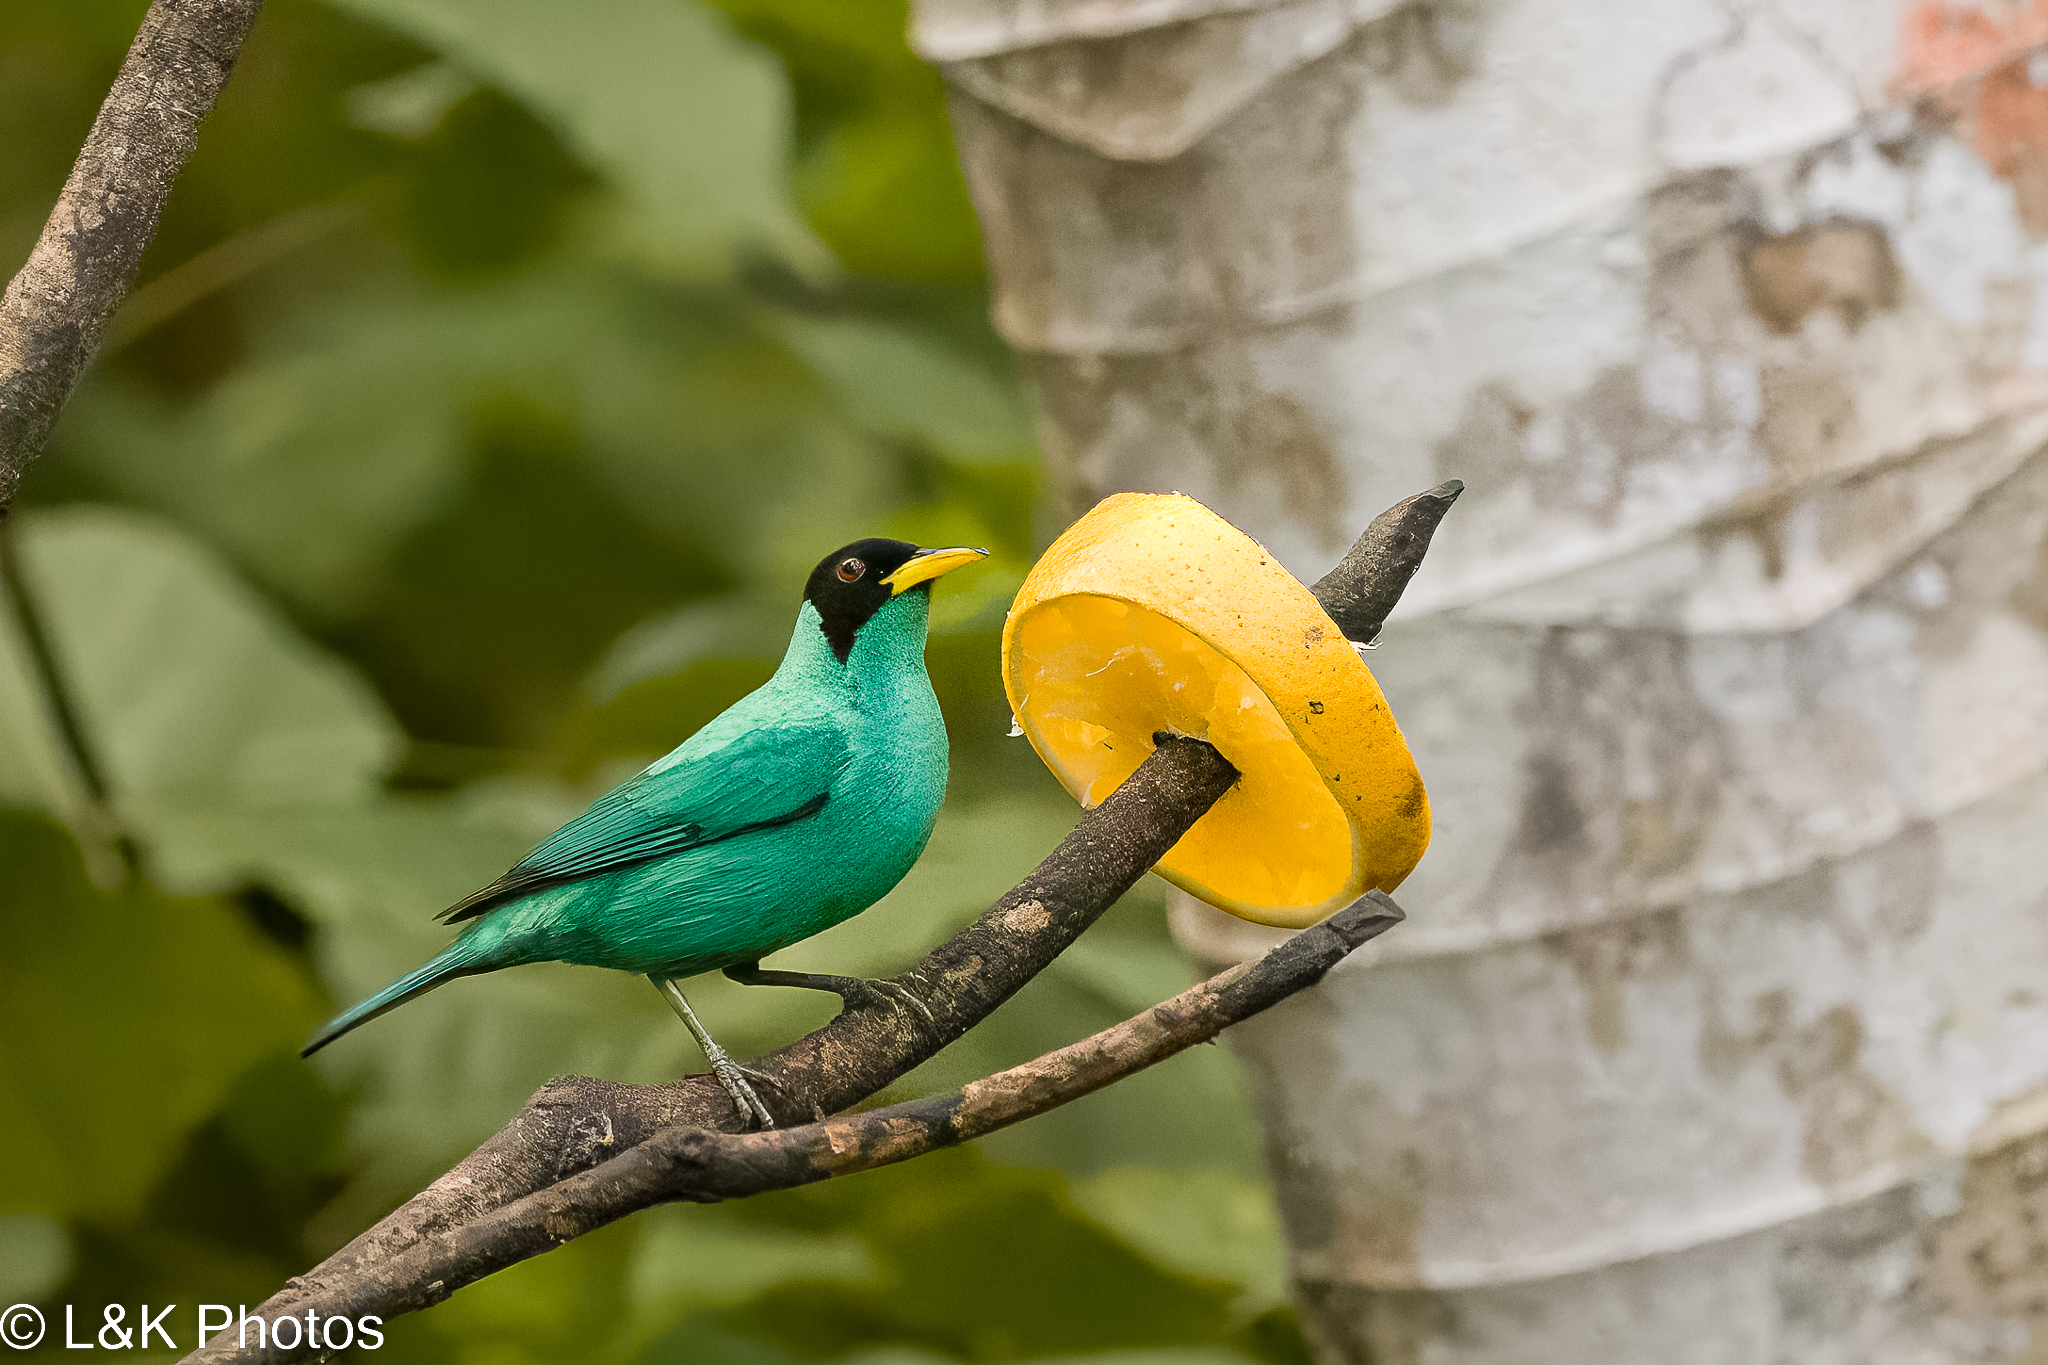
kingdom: Animalia
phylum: Chordata
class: Aves
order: Passeriformes
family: Thraupidae
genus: Chlorophanes
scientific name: Chlorophanes spiza
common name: Green honeycreeper
